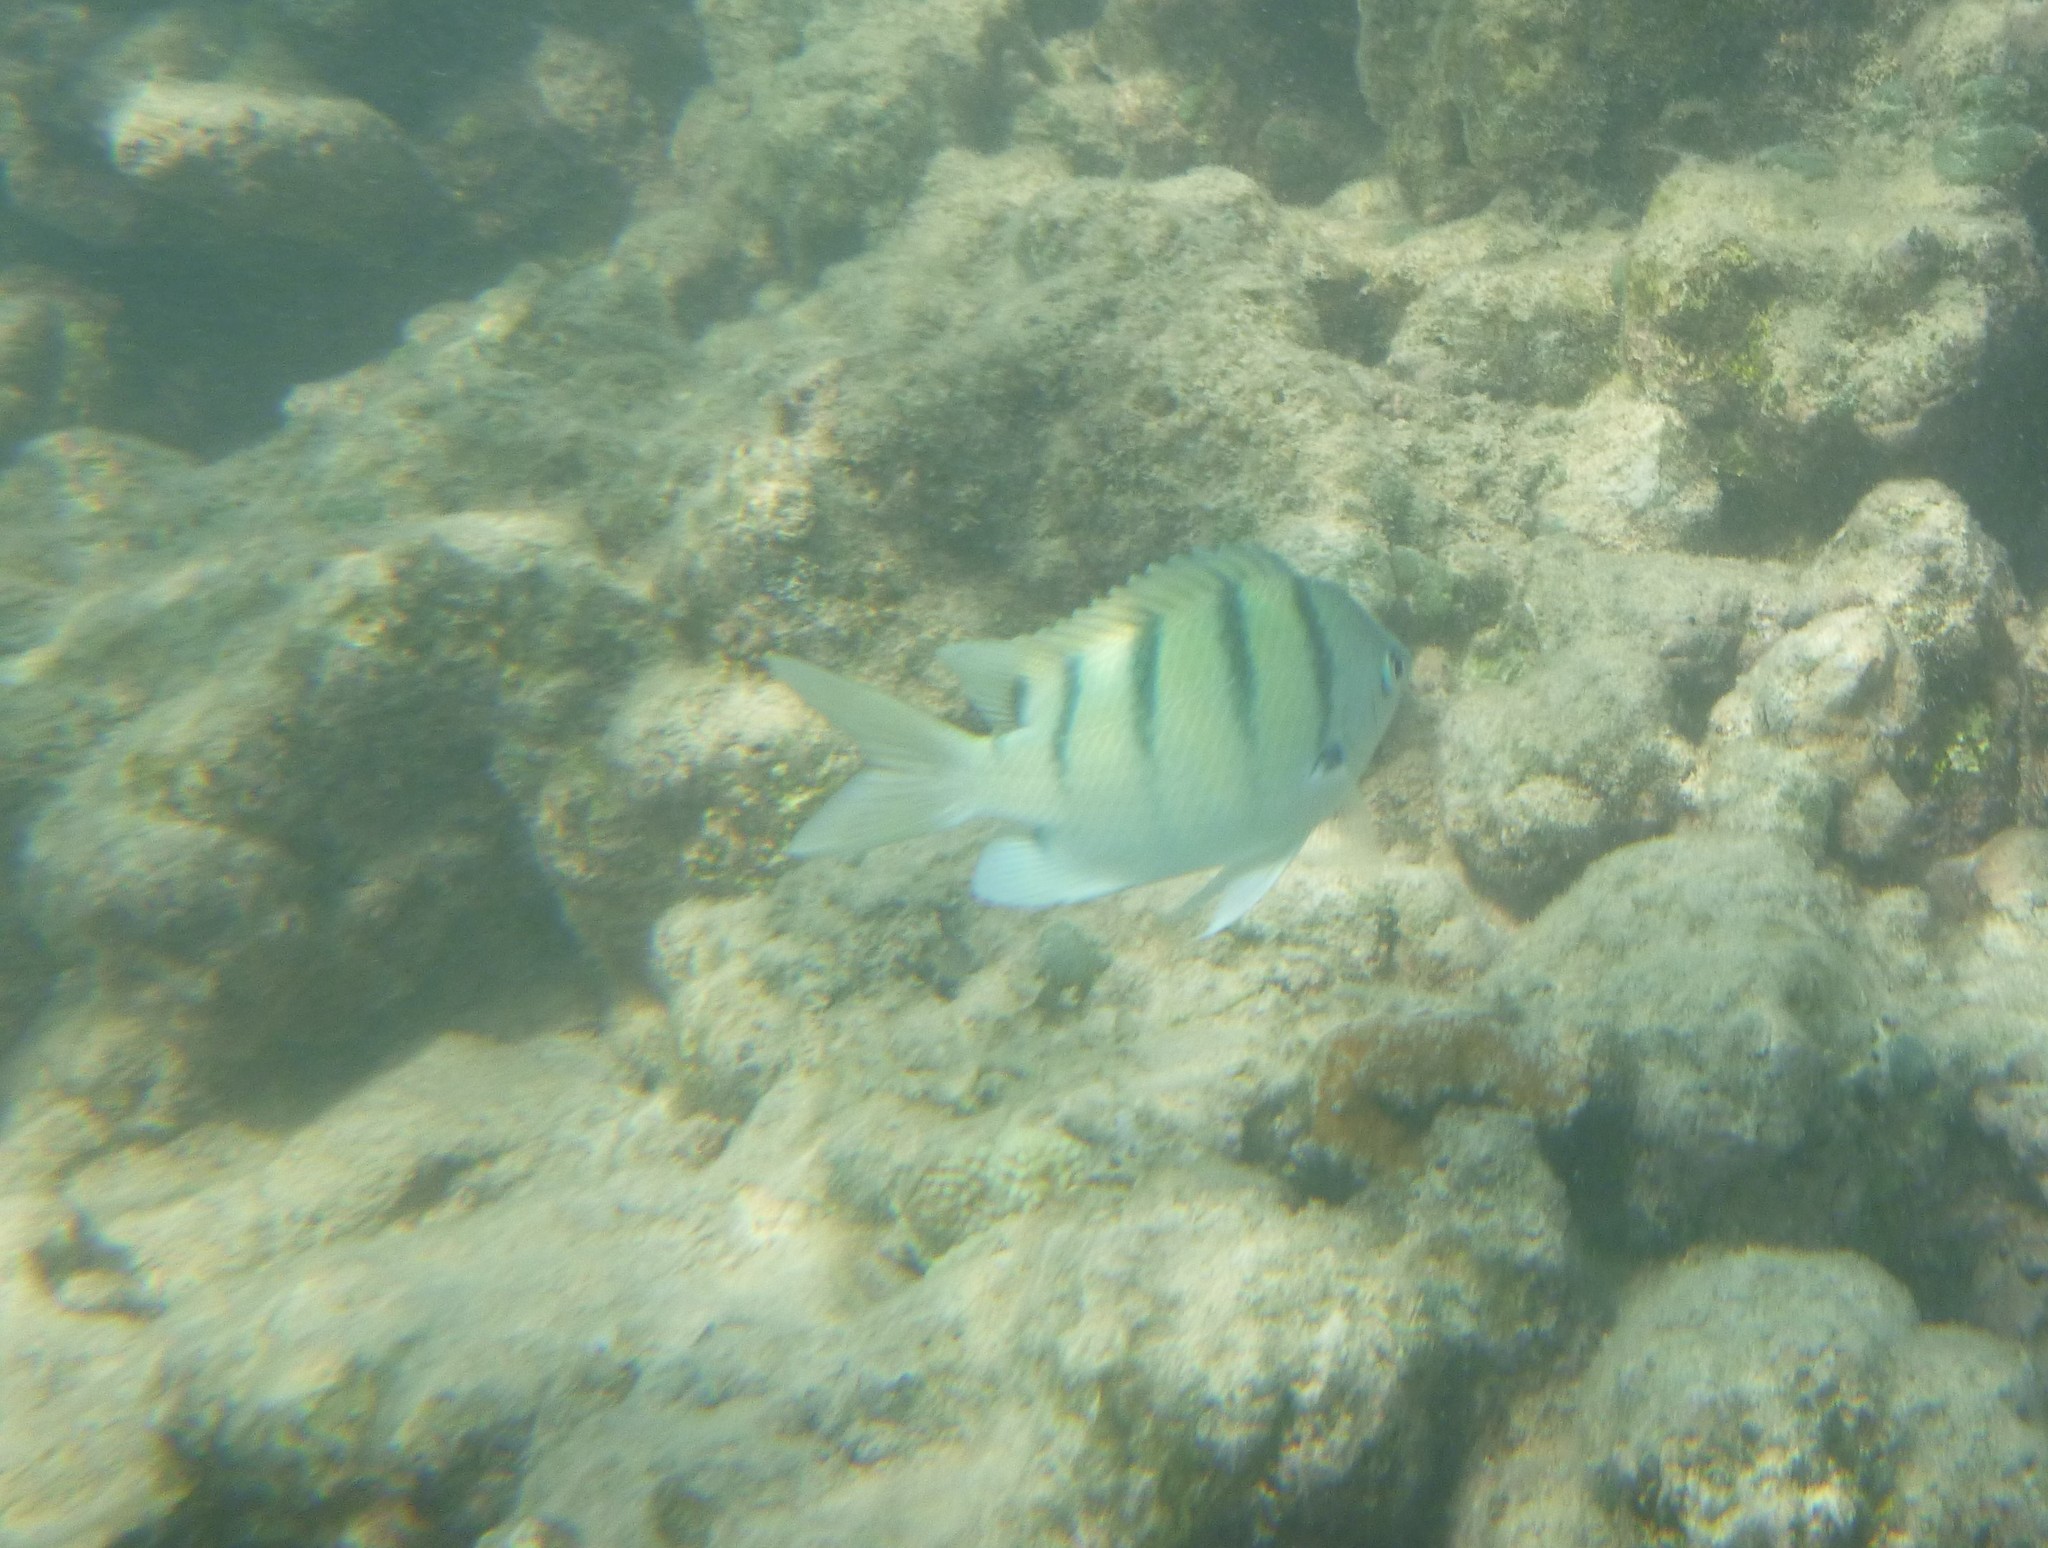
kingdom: Animalia
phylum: Chordata
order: Perciformes
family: Pomacentridae
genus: Abudefduf
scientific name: Abudefduf abdominalis
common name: Green damselfish
